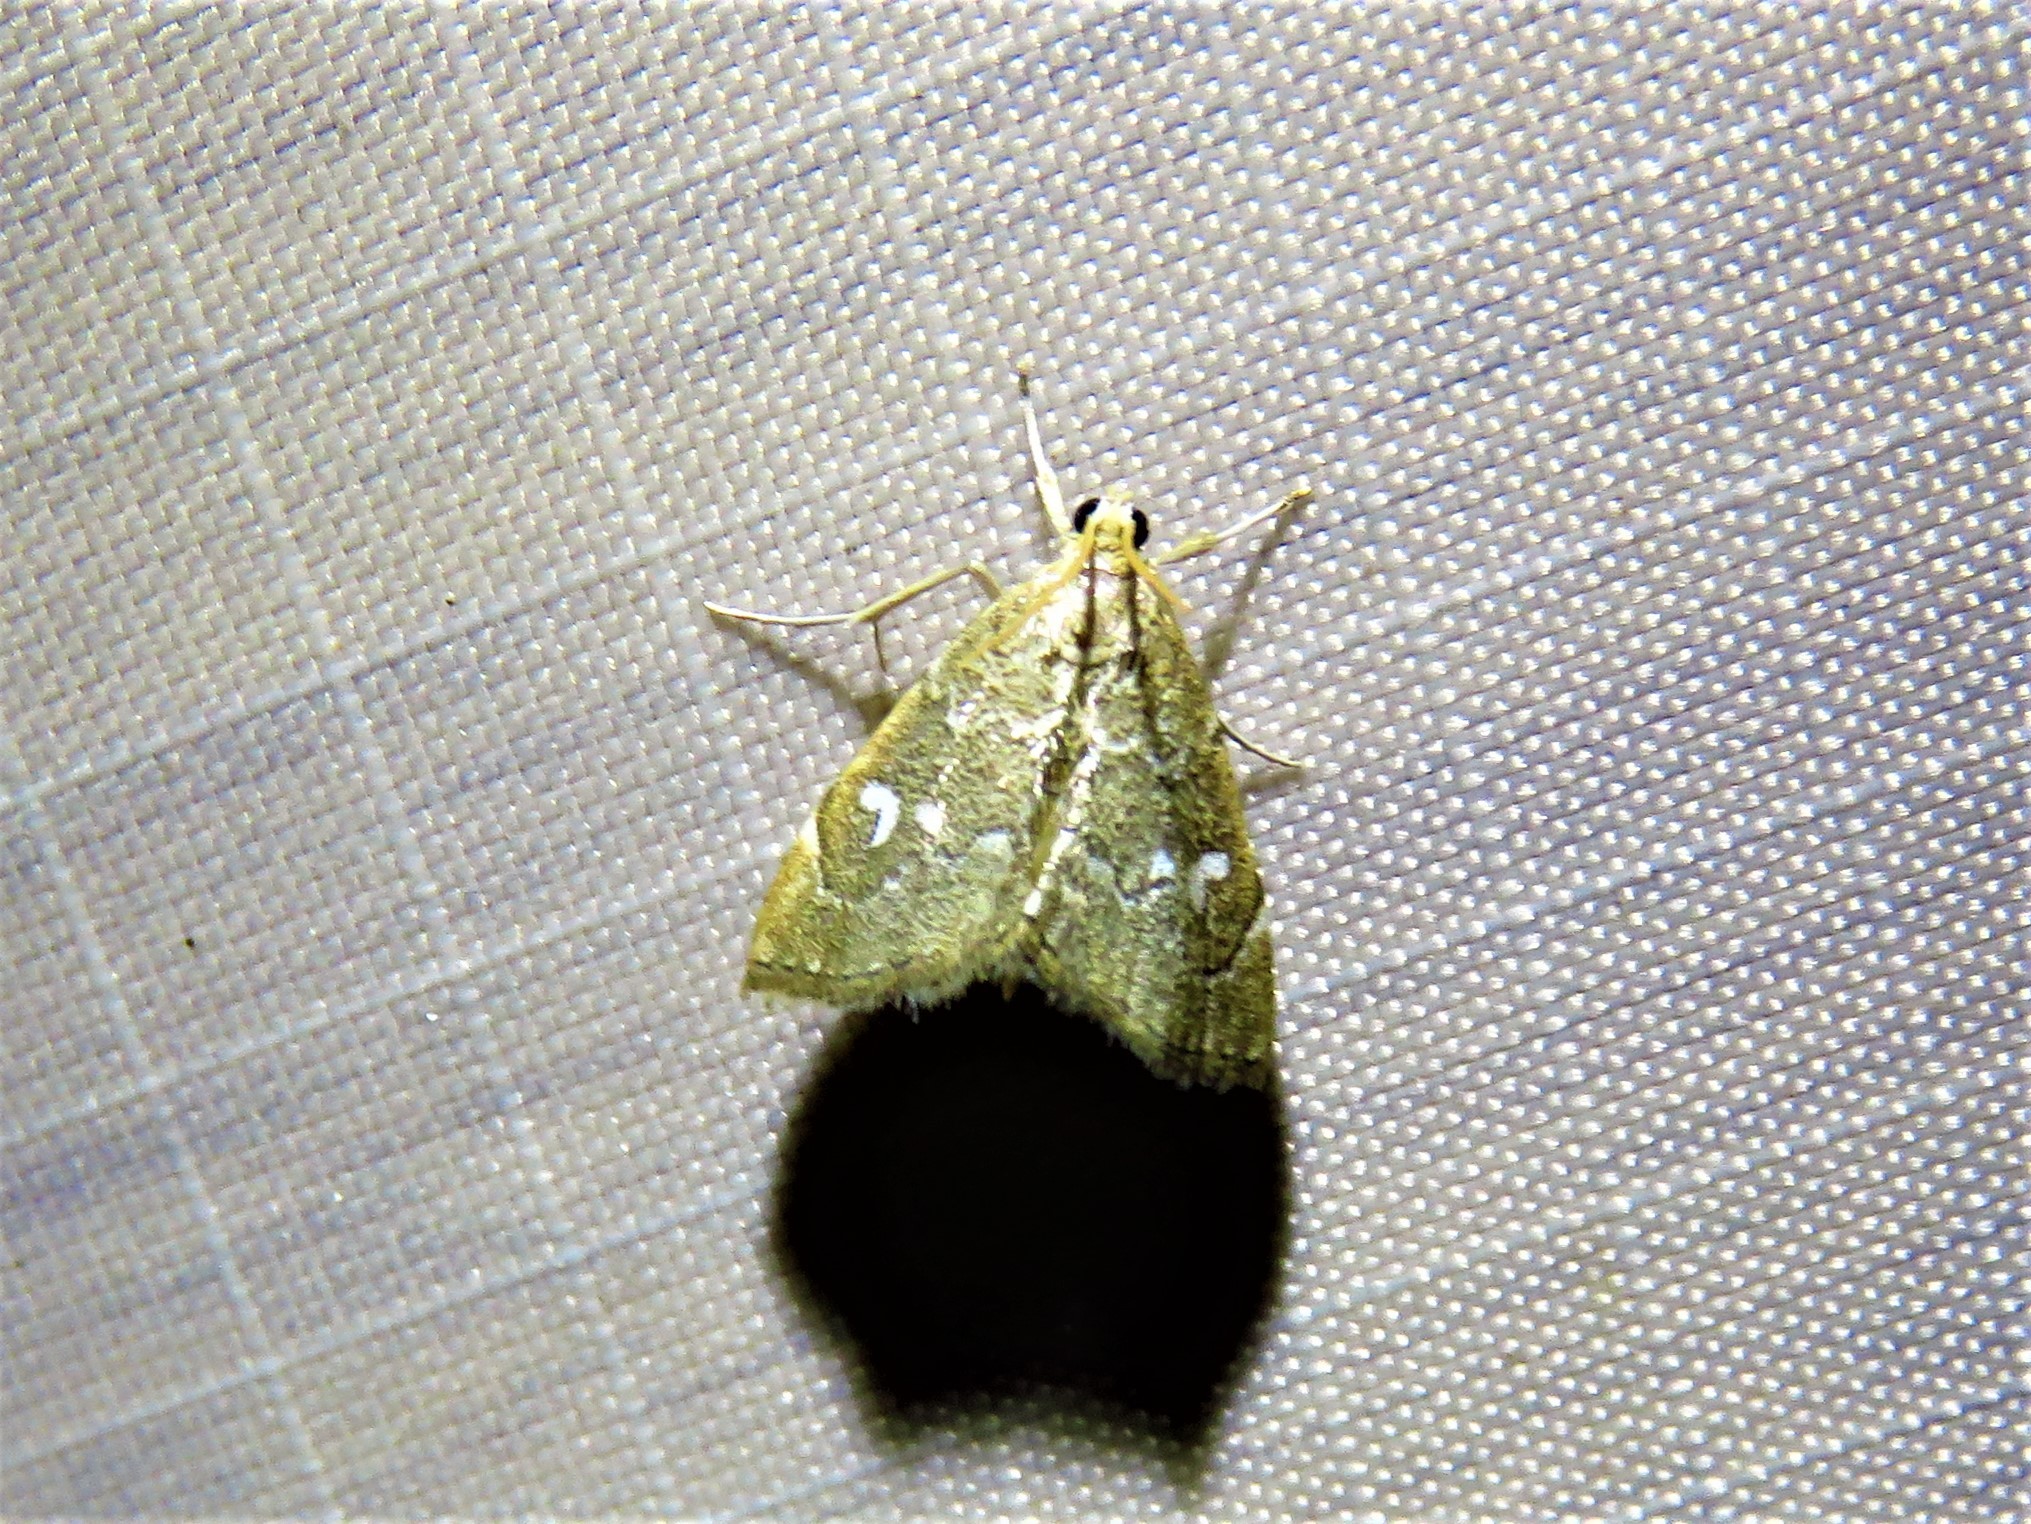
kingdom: Animalia
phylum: Arthropoda
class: Insecta
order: Lepidoptera
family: Crambidae
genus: Nephrogramma
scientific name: Nephrogramma reniculalis
